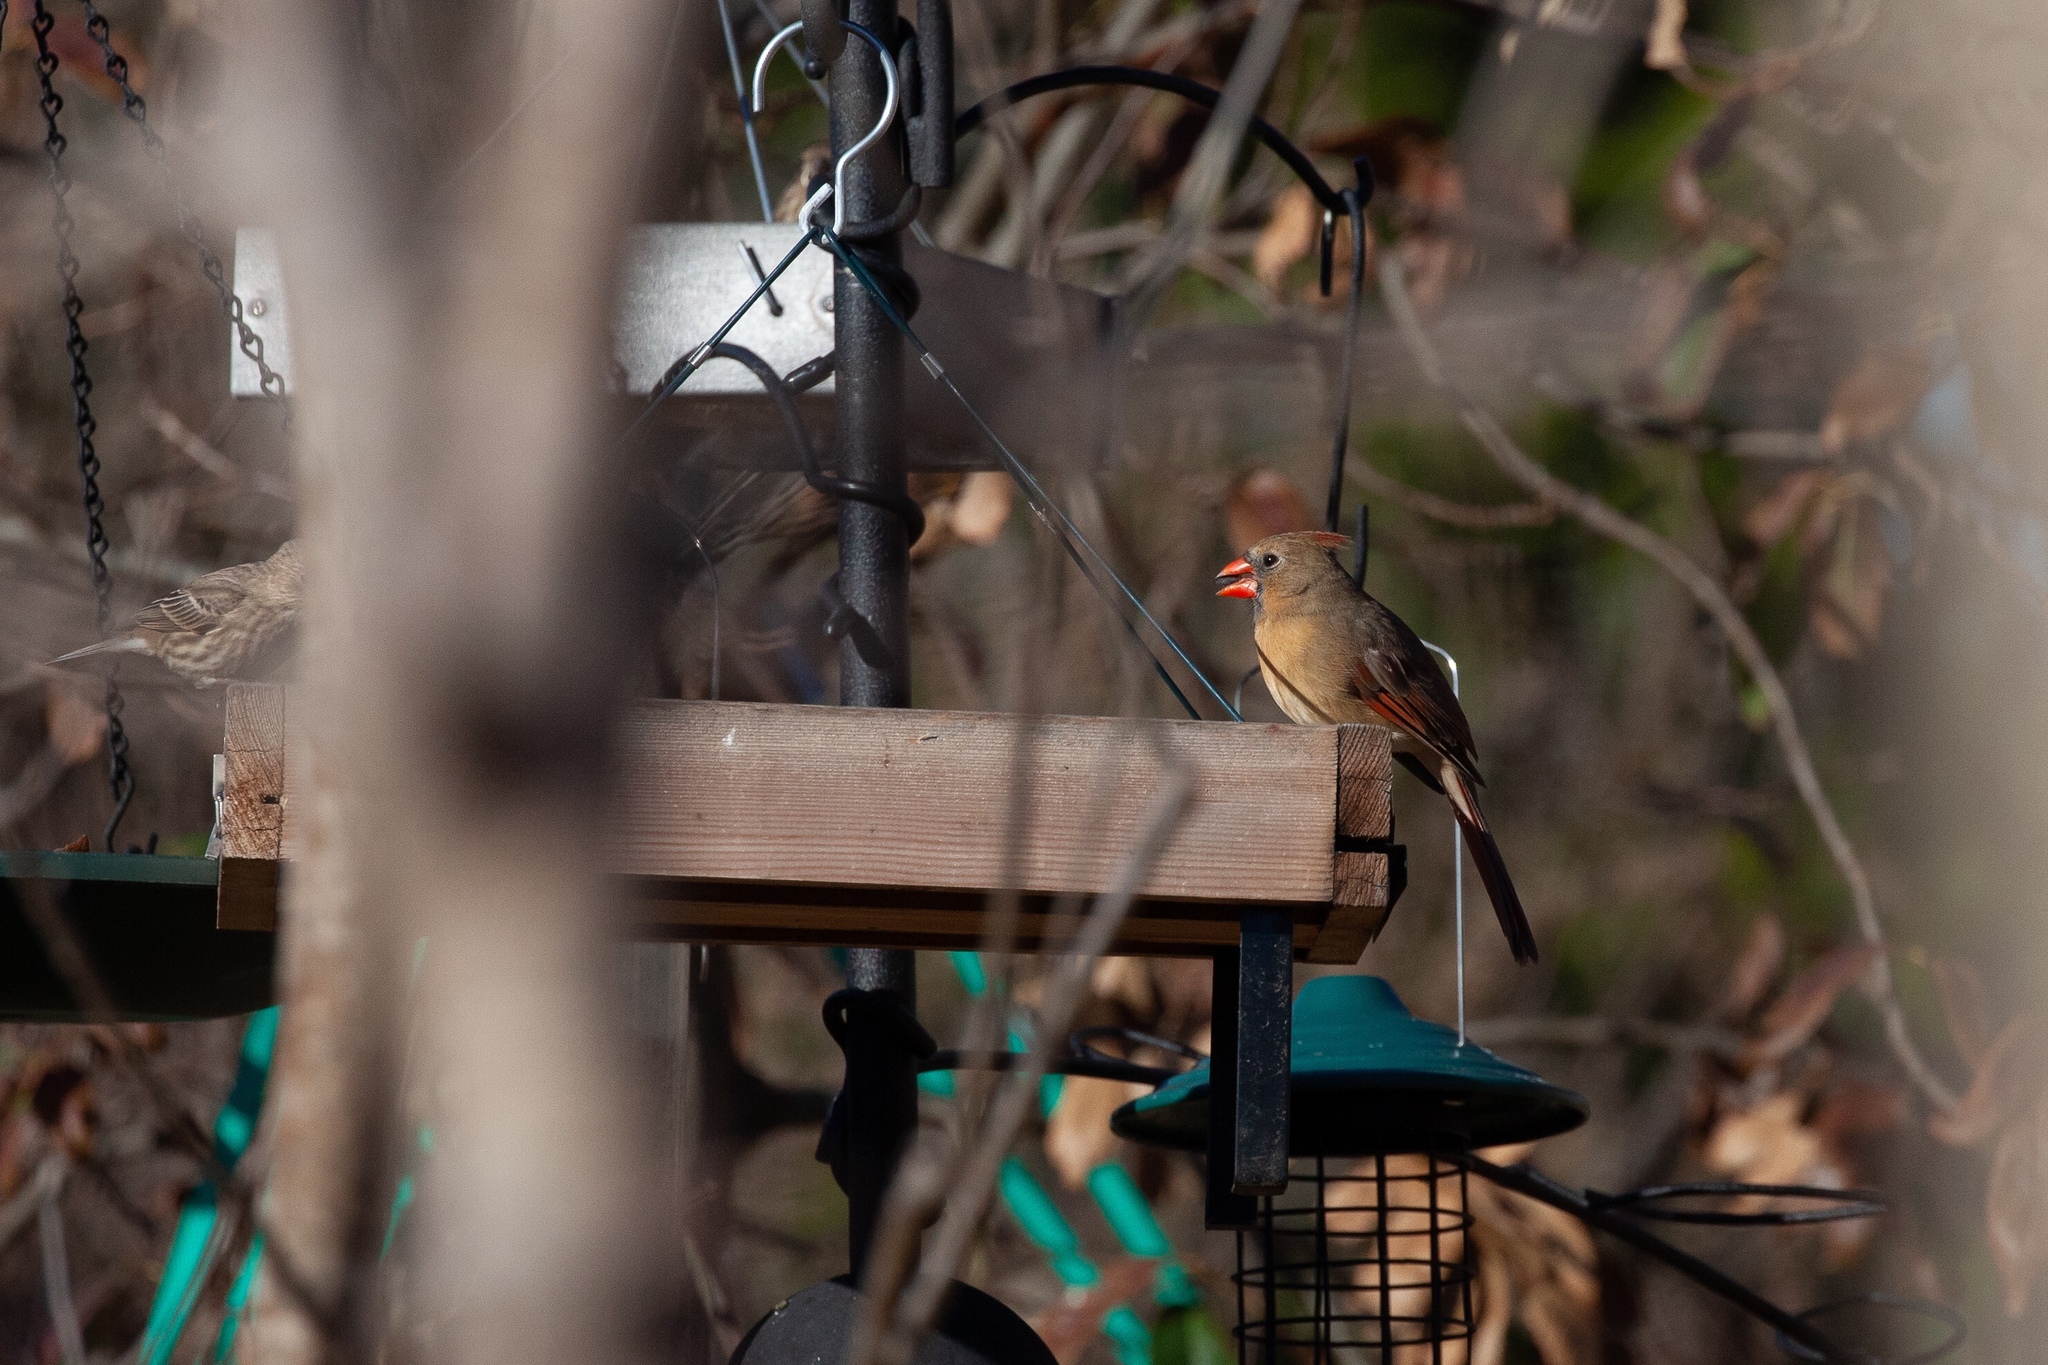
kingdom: Animalia
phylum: Chordata
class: Aves
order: Passeriformes
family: Cardinalidae
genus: Cardinalis
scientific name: Cardinalis cardinalis
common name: Northern cardinal
